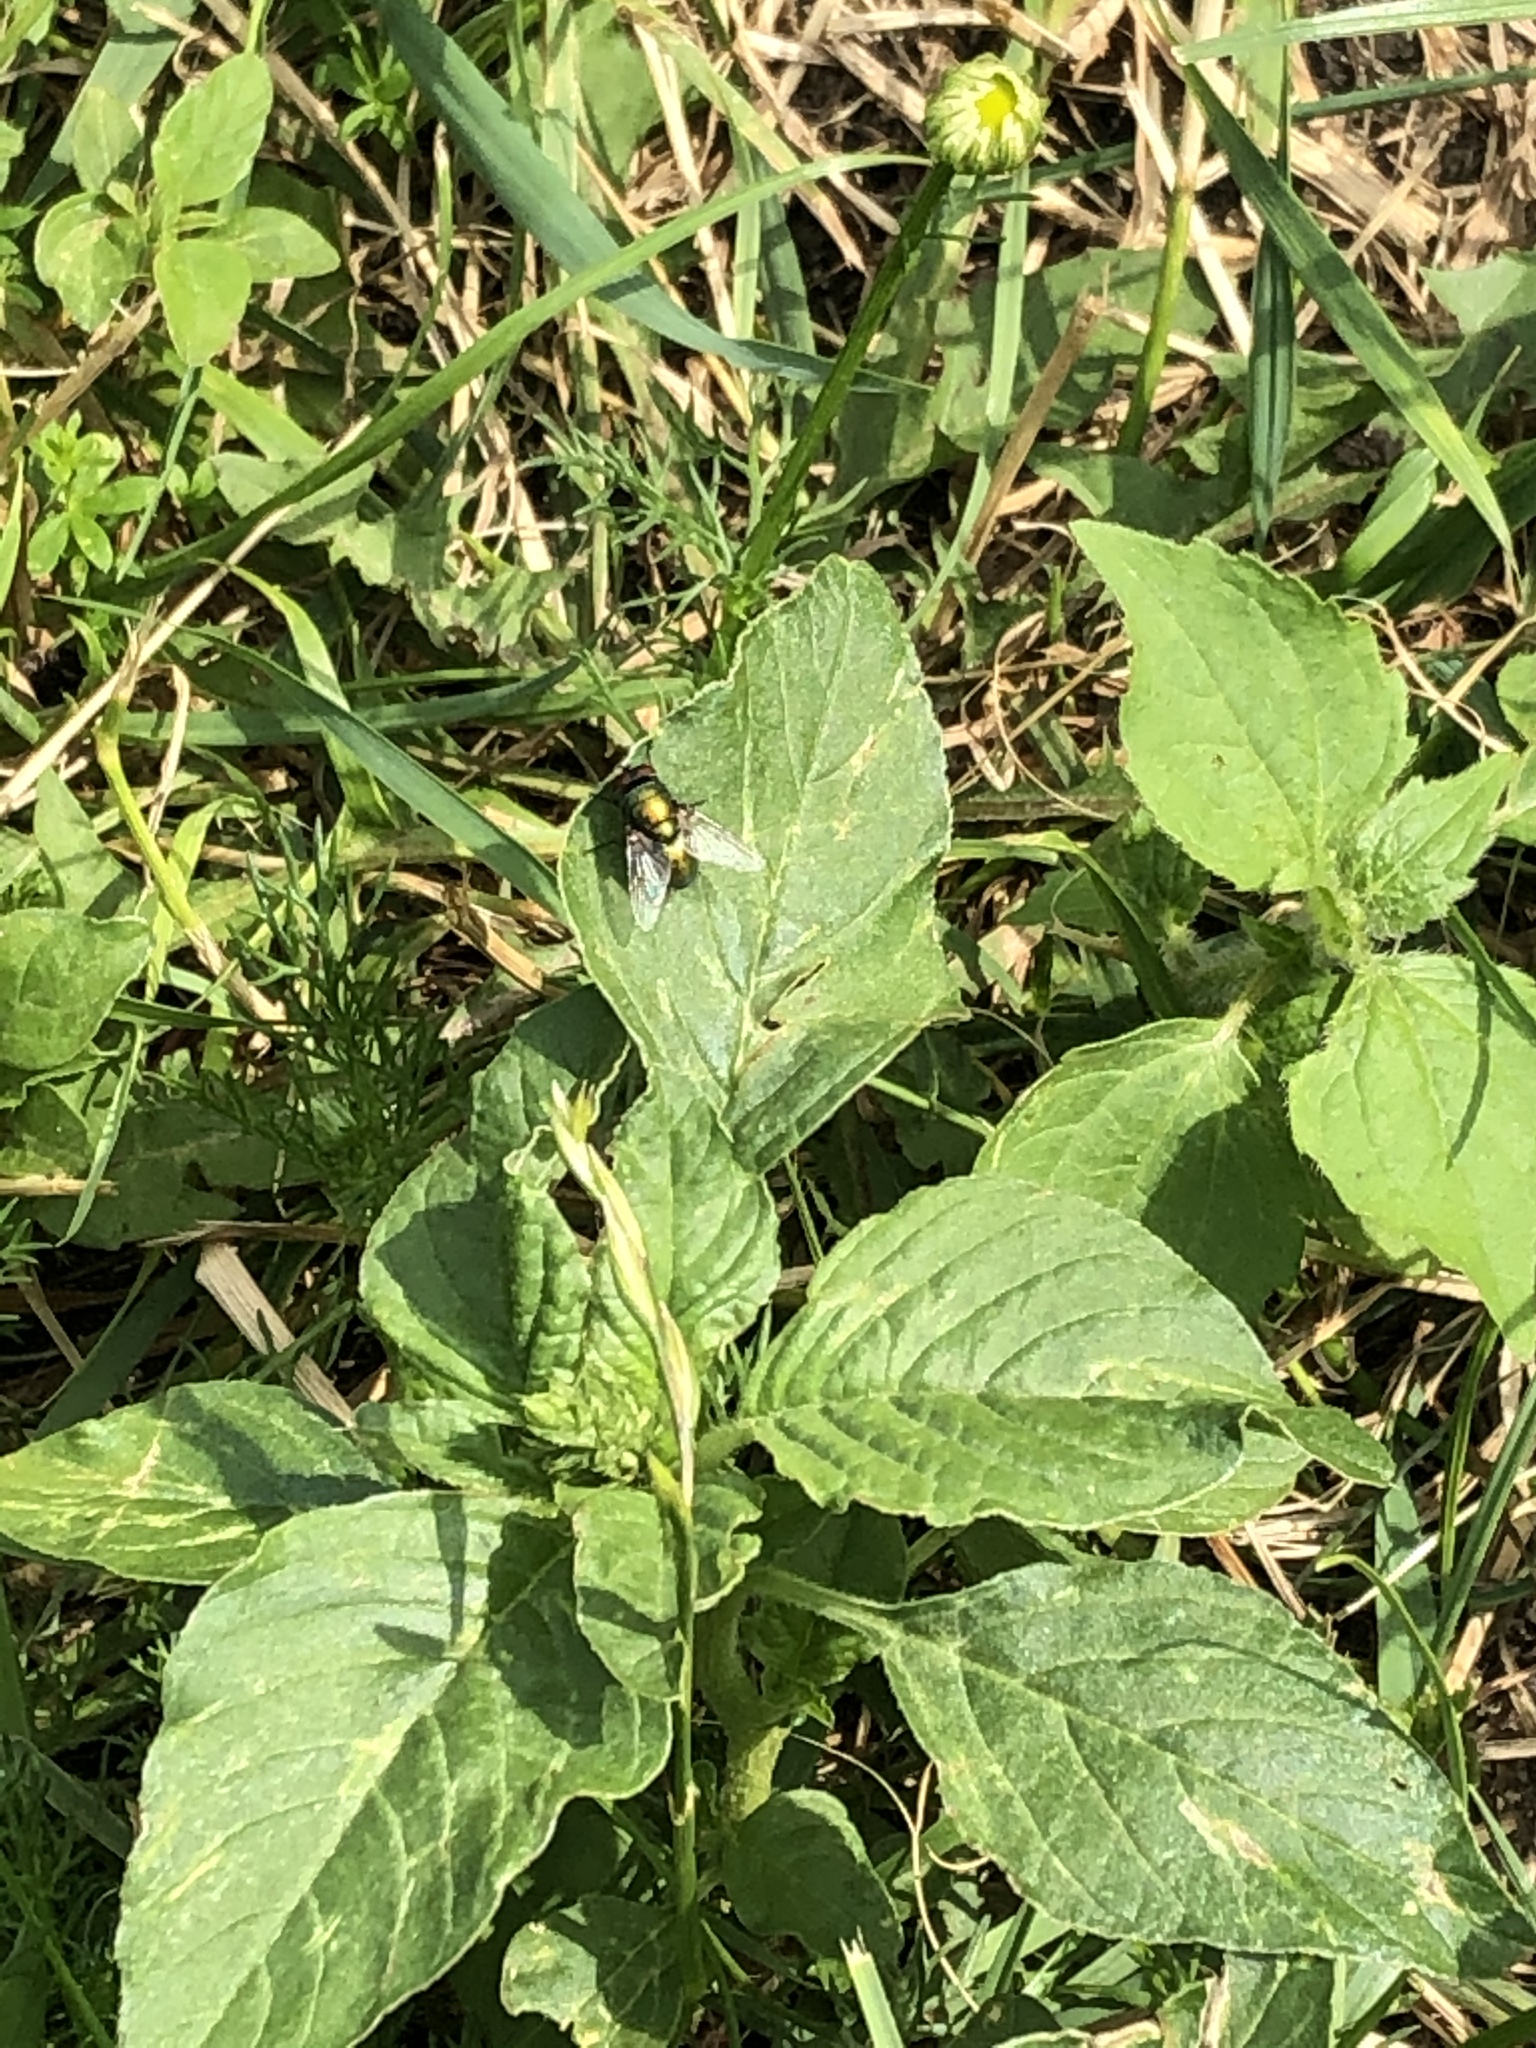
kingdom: Animalia
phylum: Arthropoda
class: Insecta
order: Diptera
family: Calliphoridae
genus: Lucilia
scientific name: Lucilia sericata
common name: Blow fly
